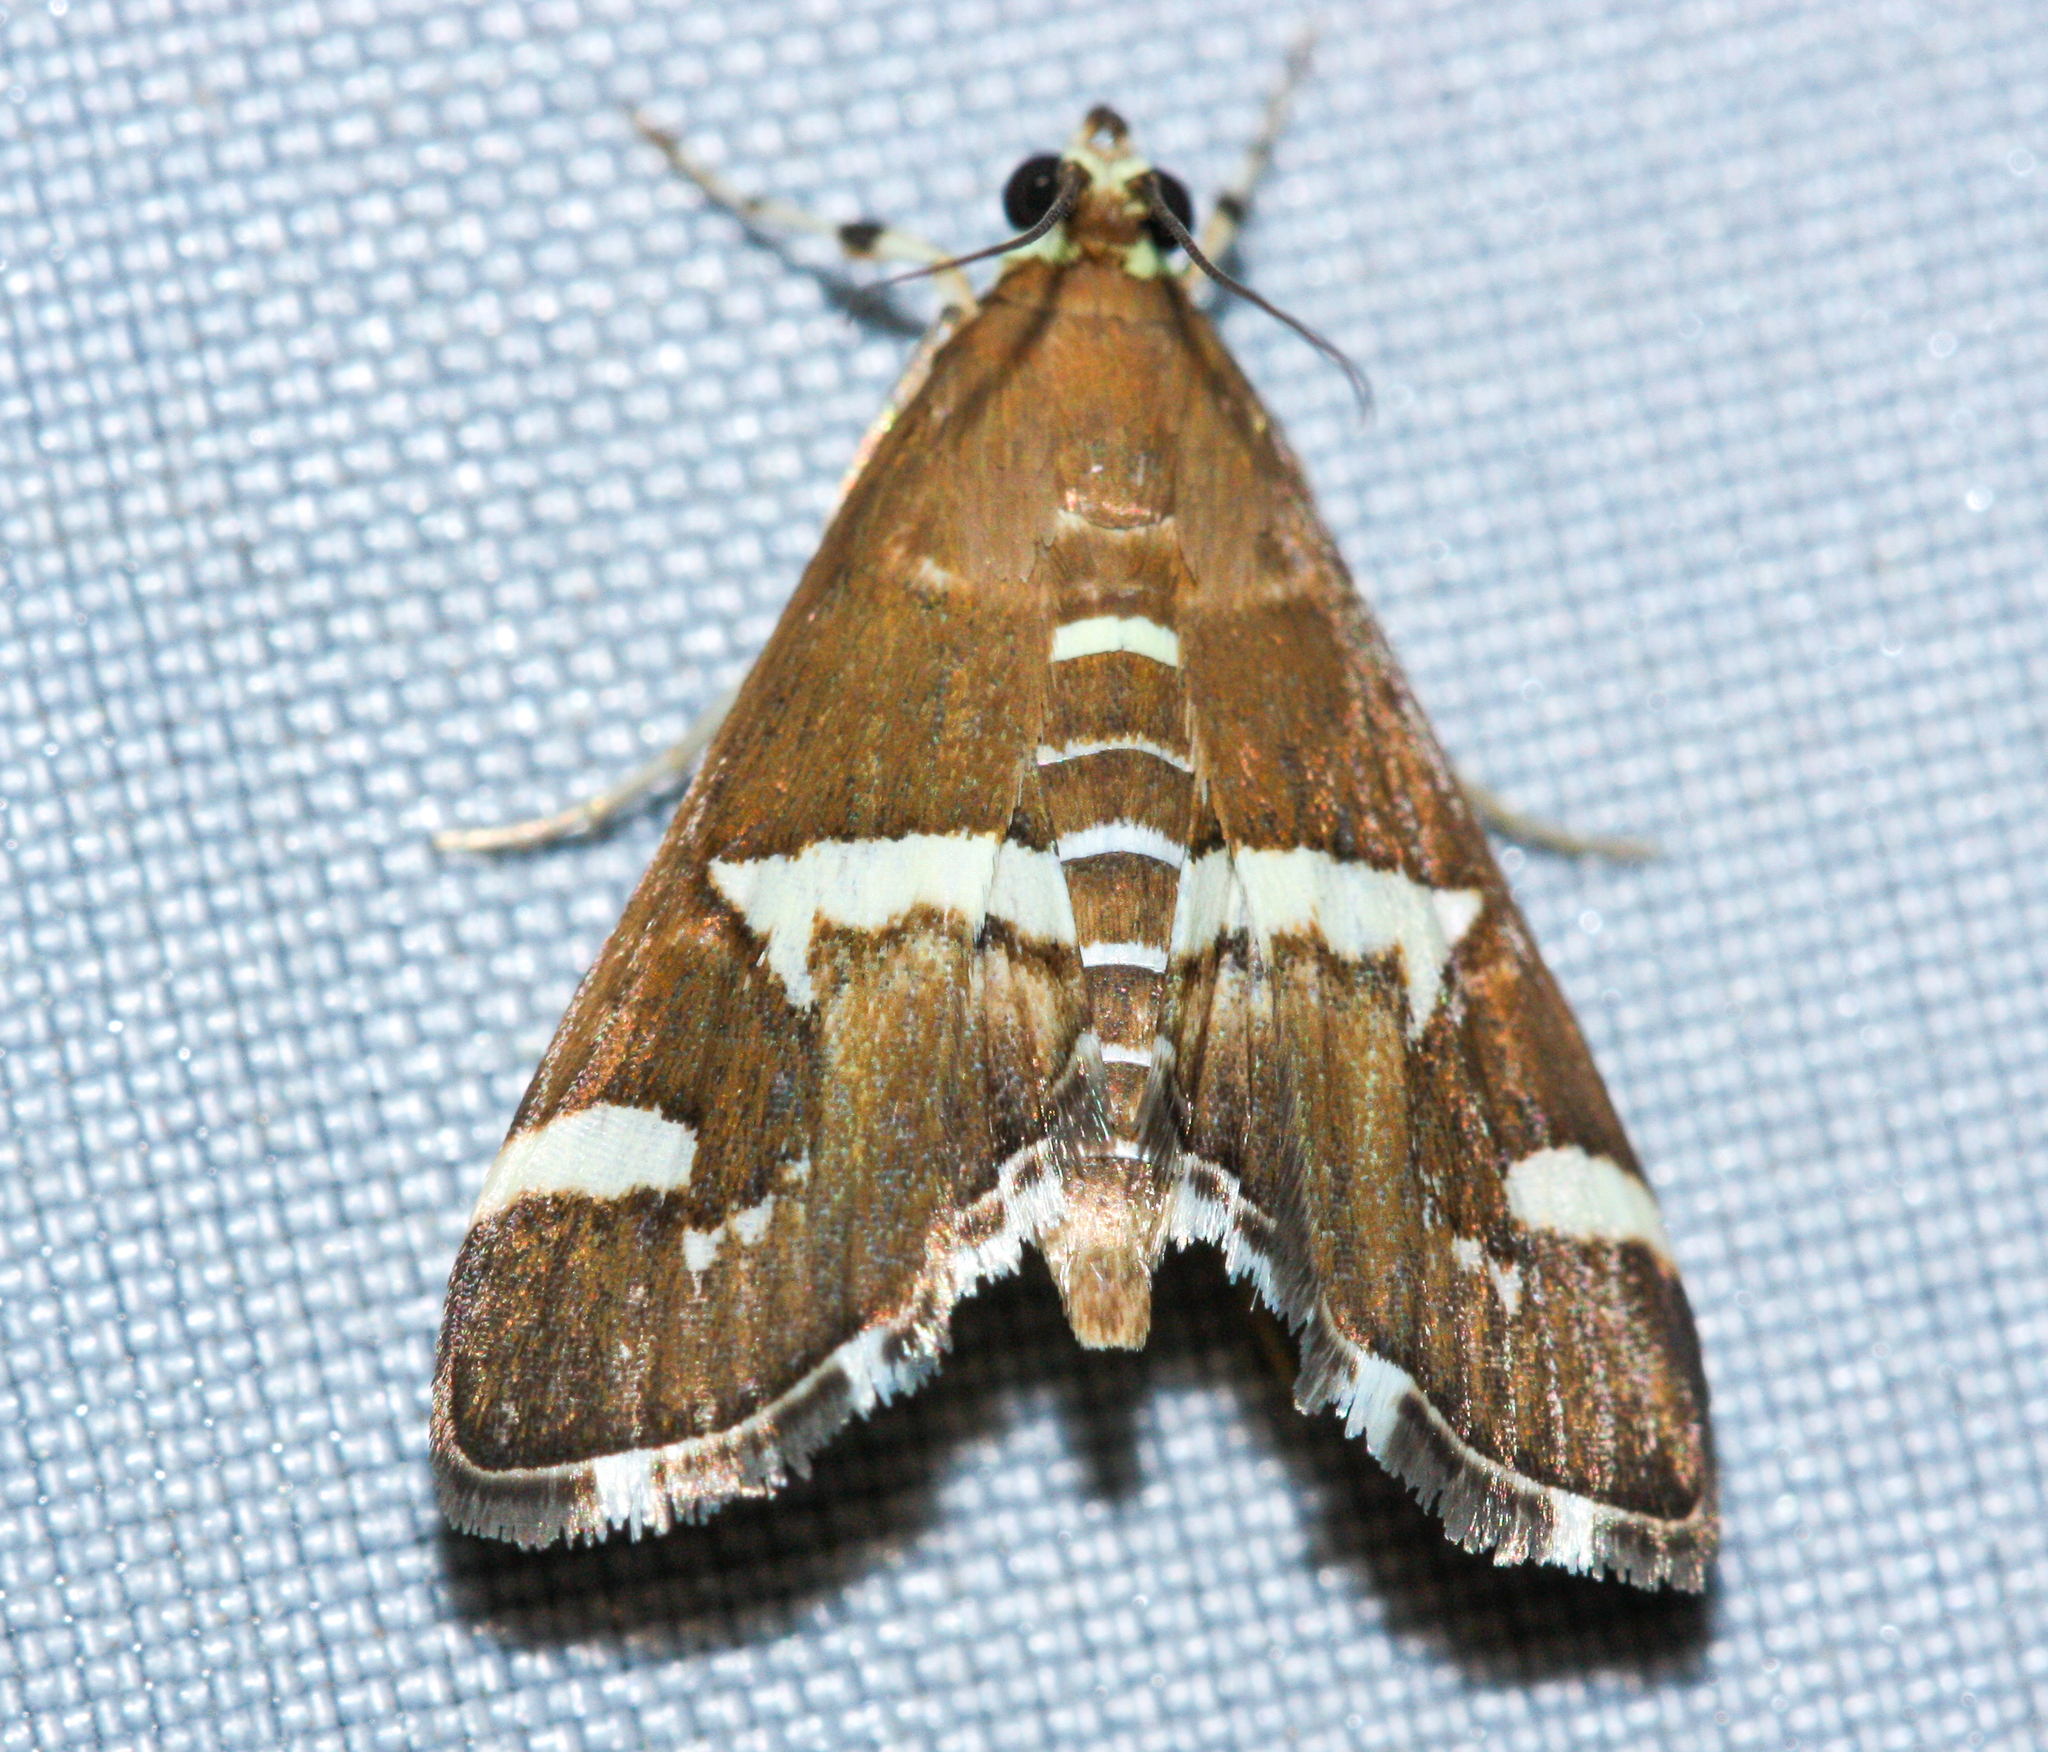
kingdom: Animalia
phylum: Arthropoda
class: Insecta
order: Lepidoptera
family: Crambidae
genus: Spoladea
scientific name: Spoladea recurvalis
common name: Beet webworm moth
